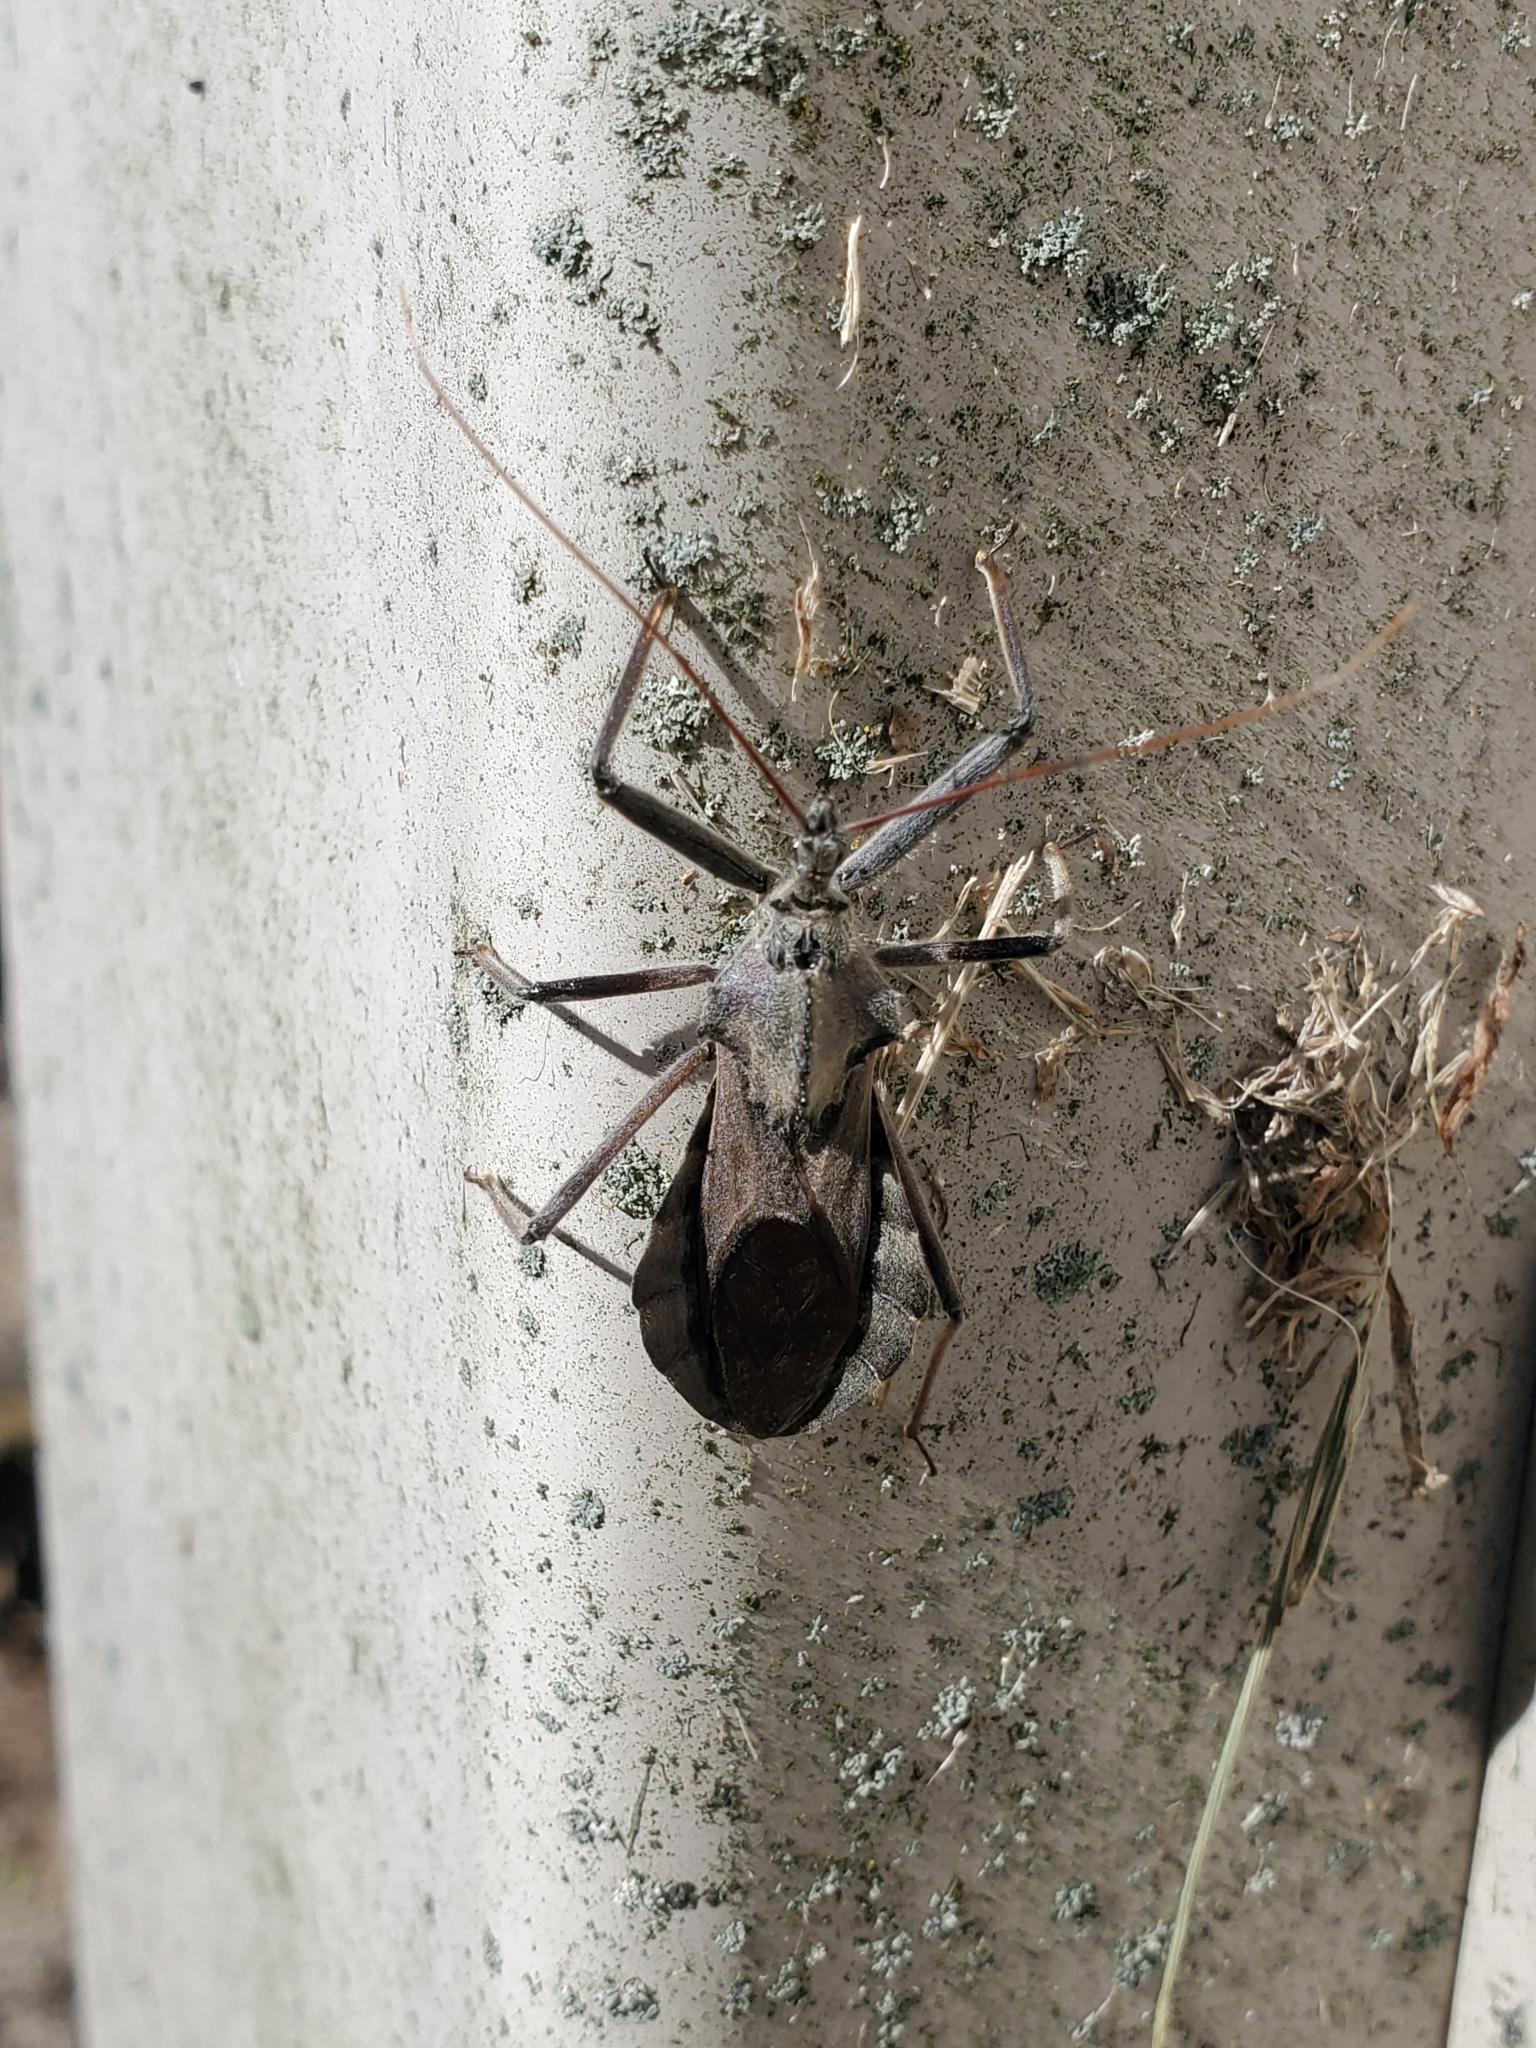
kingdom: Animalia
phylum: Arthropoda
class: Insecta
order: Hemiptera
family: Reduviidae
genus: Arilus
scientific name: Arilus cristatus
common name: North american wheel bug
